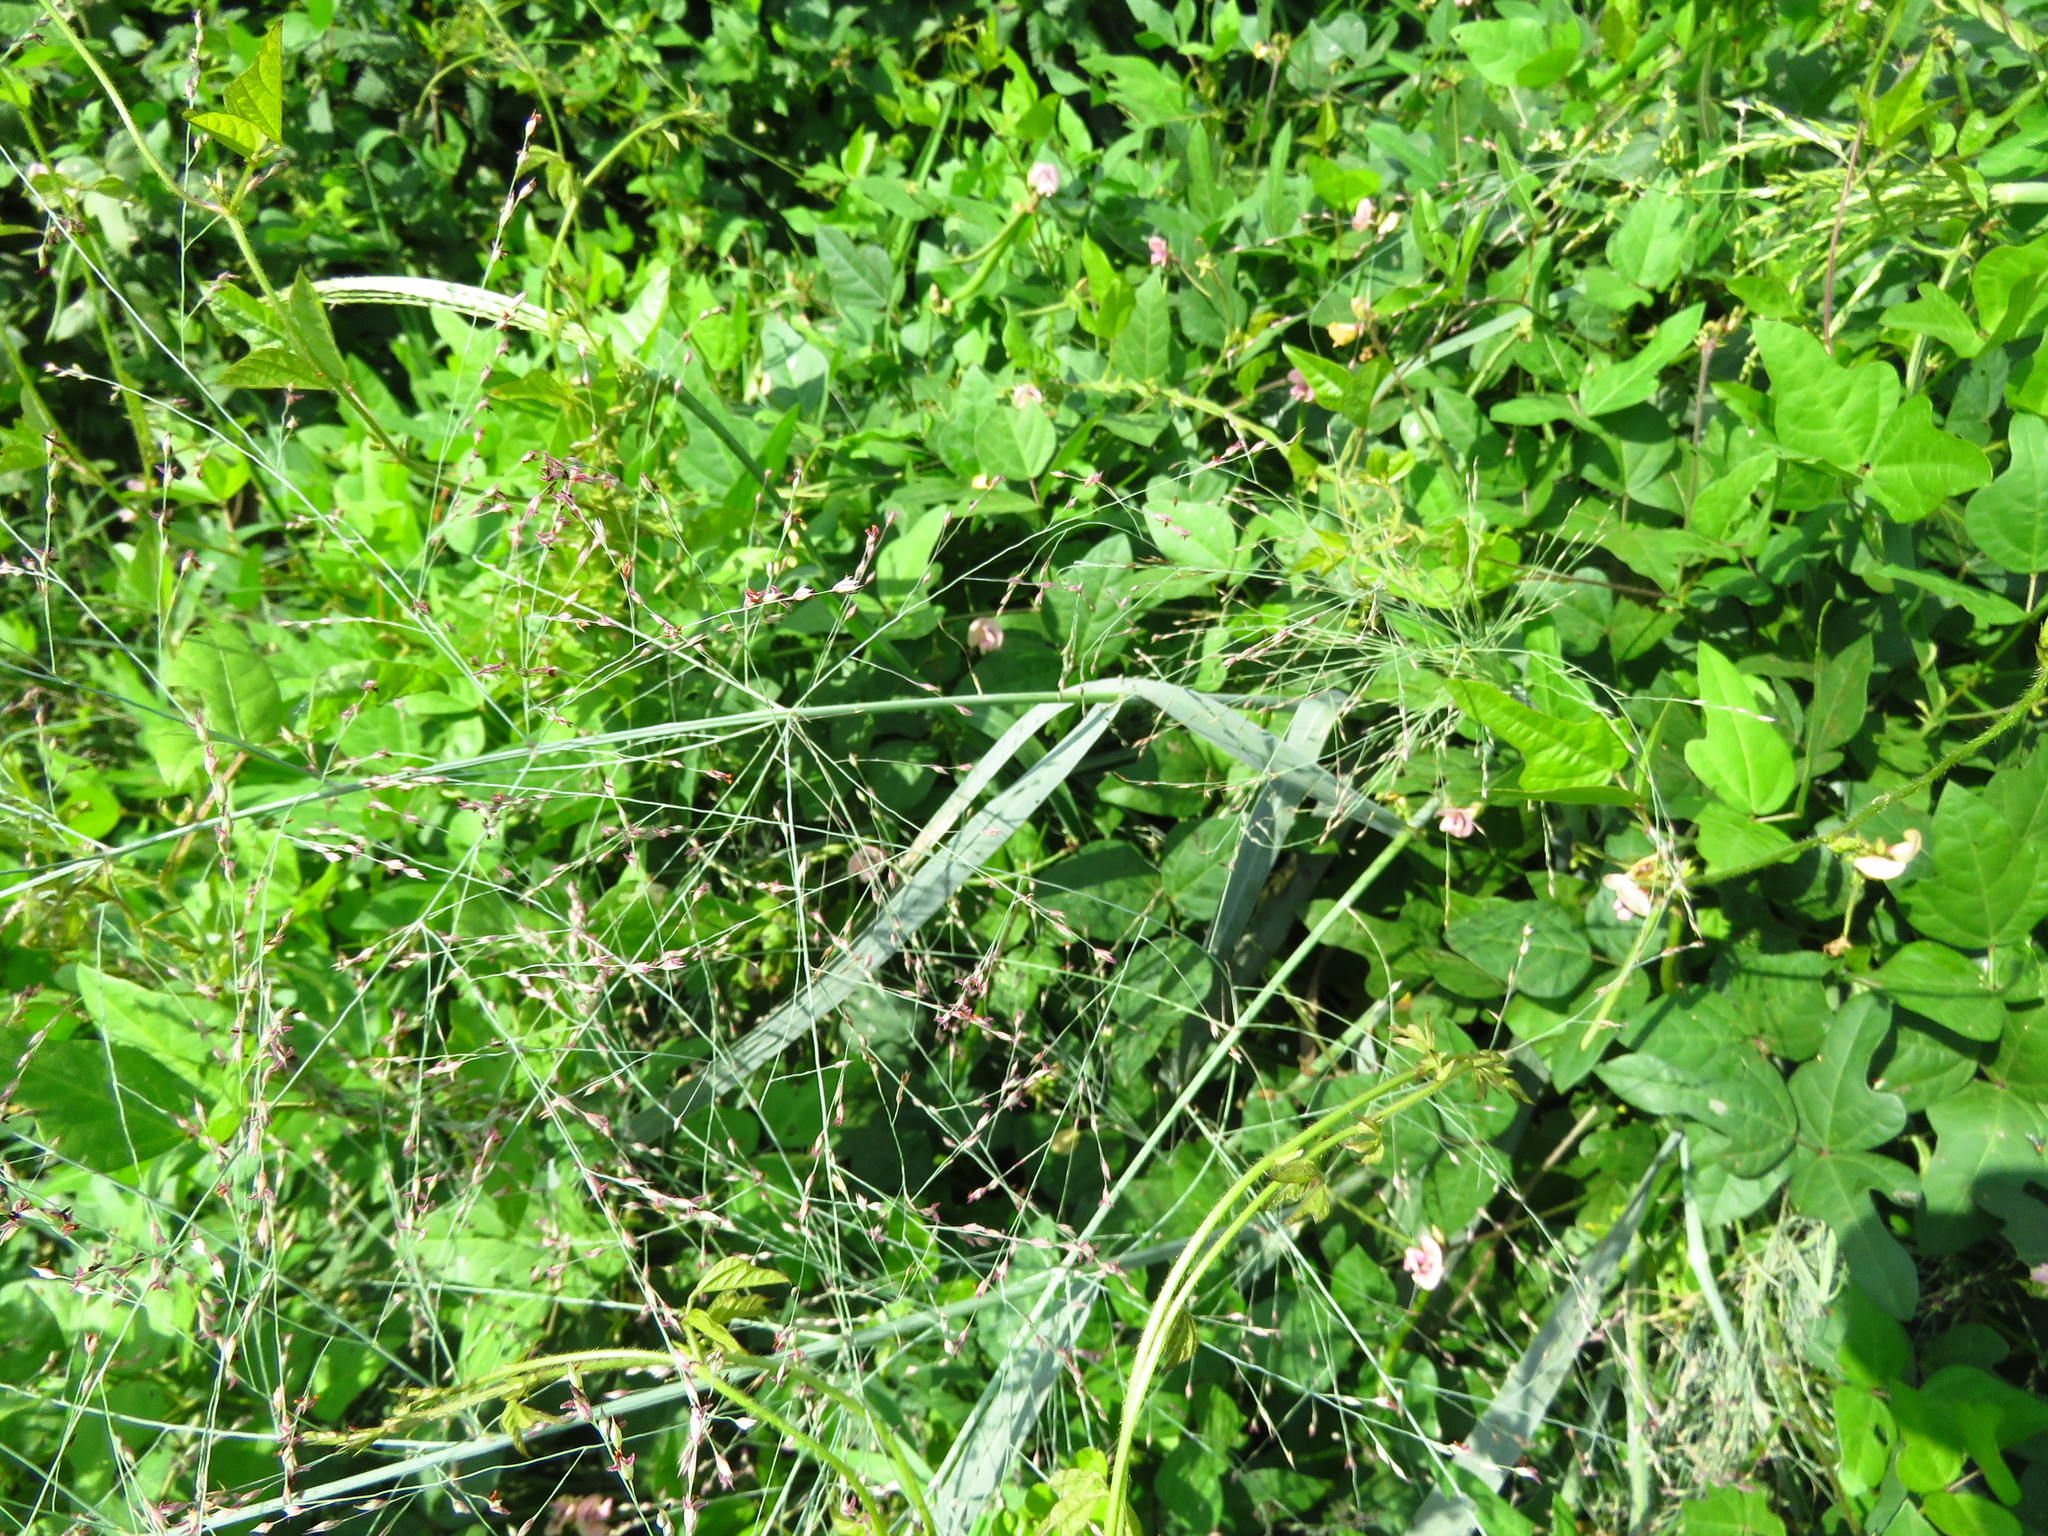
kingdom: Plantae
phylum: Tracheophyta
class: Liliopsida
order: Poales
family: Poaceae
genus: Panicum
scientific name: Panicum virgatum
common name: Switchgrass
